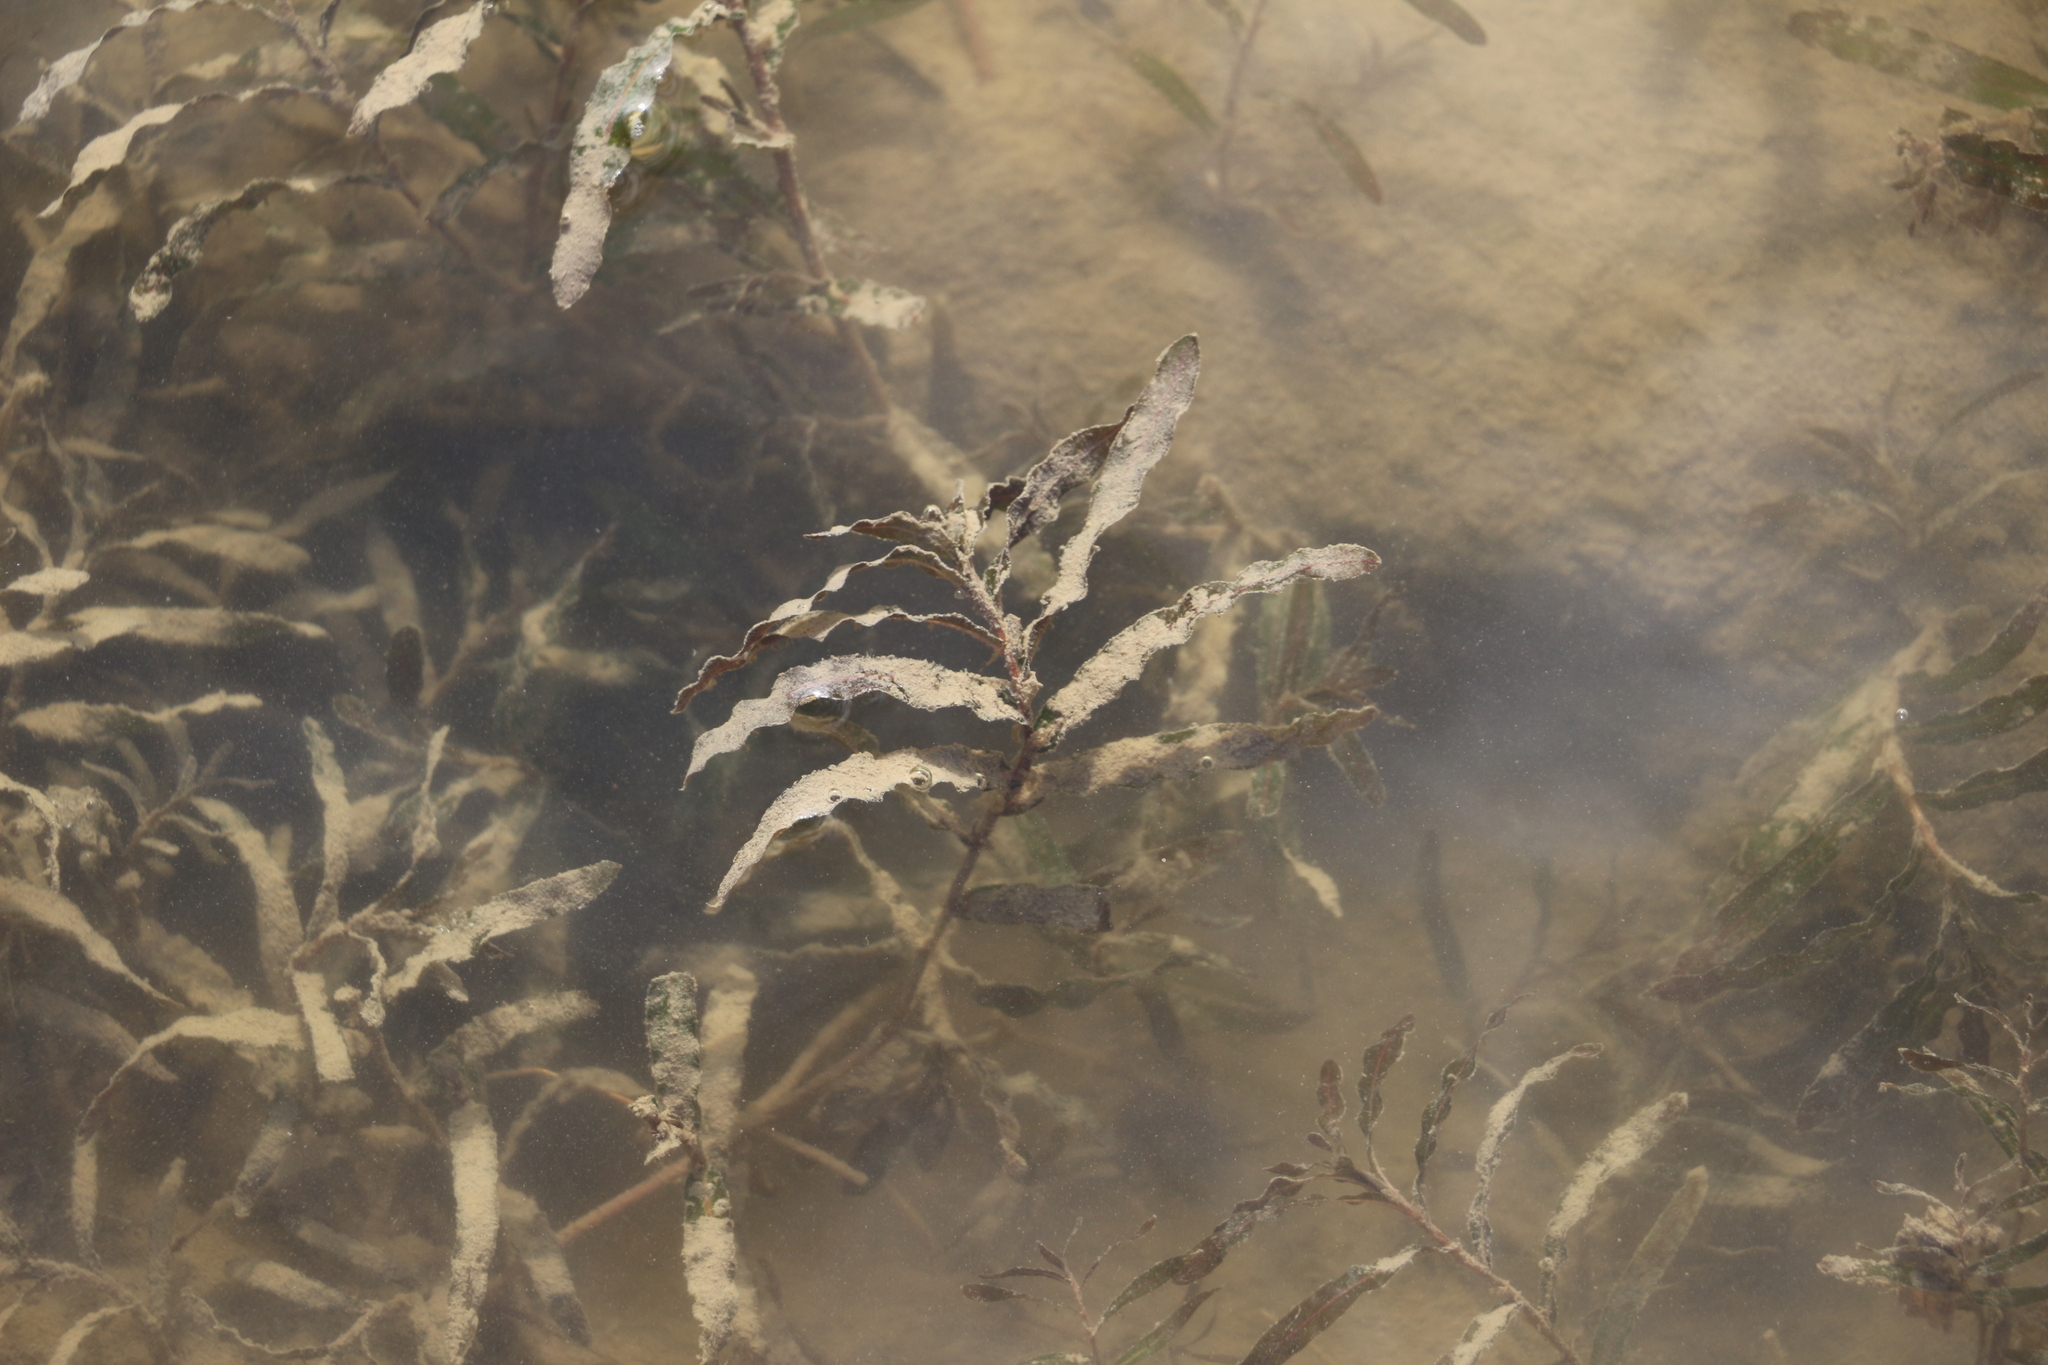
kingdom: Plantae
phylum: Tracheophyta
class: Liliopsida
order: Alismatales
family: Potamogetonaceae
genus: Potamogeton
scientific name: Potamogeton crispus
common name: Curled pondweed
